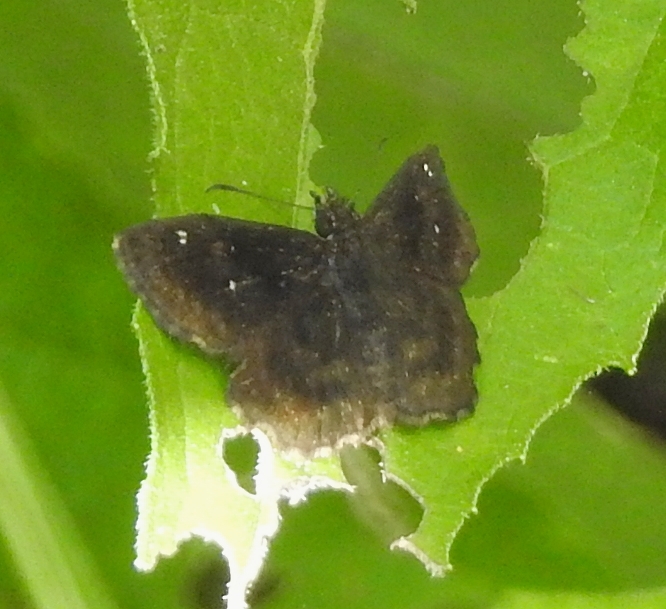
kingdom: Animalia
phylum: Arthropoda
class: Insecta
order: Lepidoptera
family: Hesperiidae
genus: Staphylus
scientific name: Staphylus mazans
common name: Mazans scallopwing
